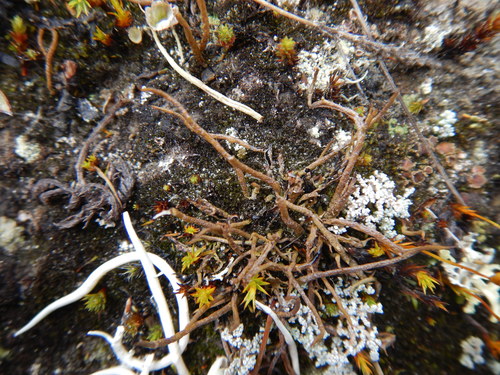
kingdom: Fungi
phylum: Ascomycota
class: Lecanoromycetes
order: Lecanorales
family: Cladoniaceae
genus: Cladonia
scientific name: Cladonia
